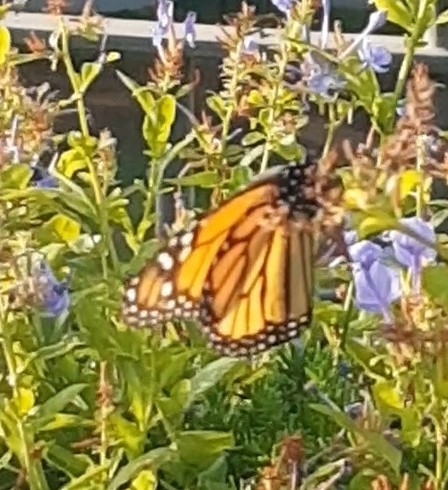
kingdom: Animalia
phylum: Arthropoda
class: Insecta
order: Lepidoptera
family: Nymphalidae
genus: Danaus
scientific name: Danaus plexippus
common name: Monarch
